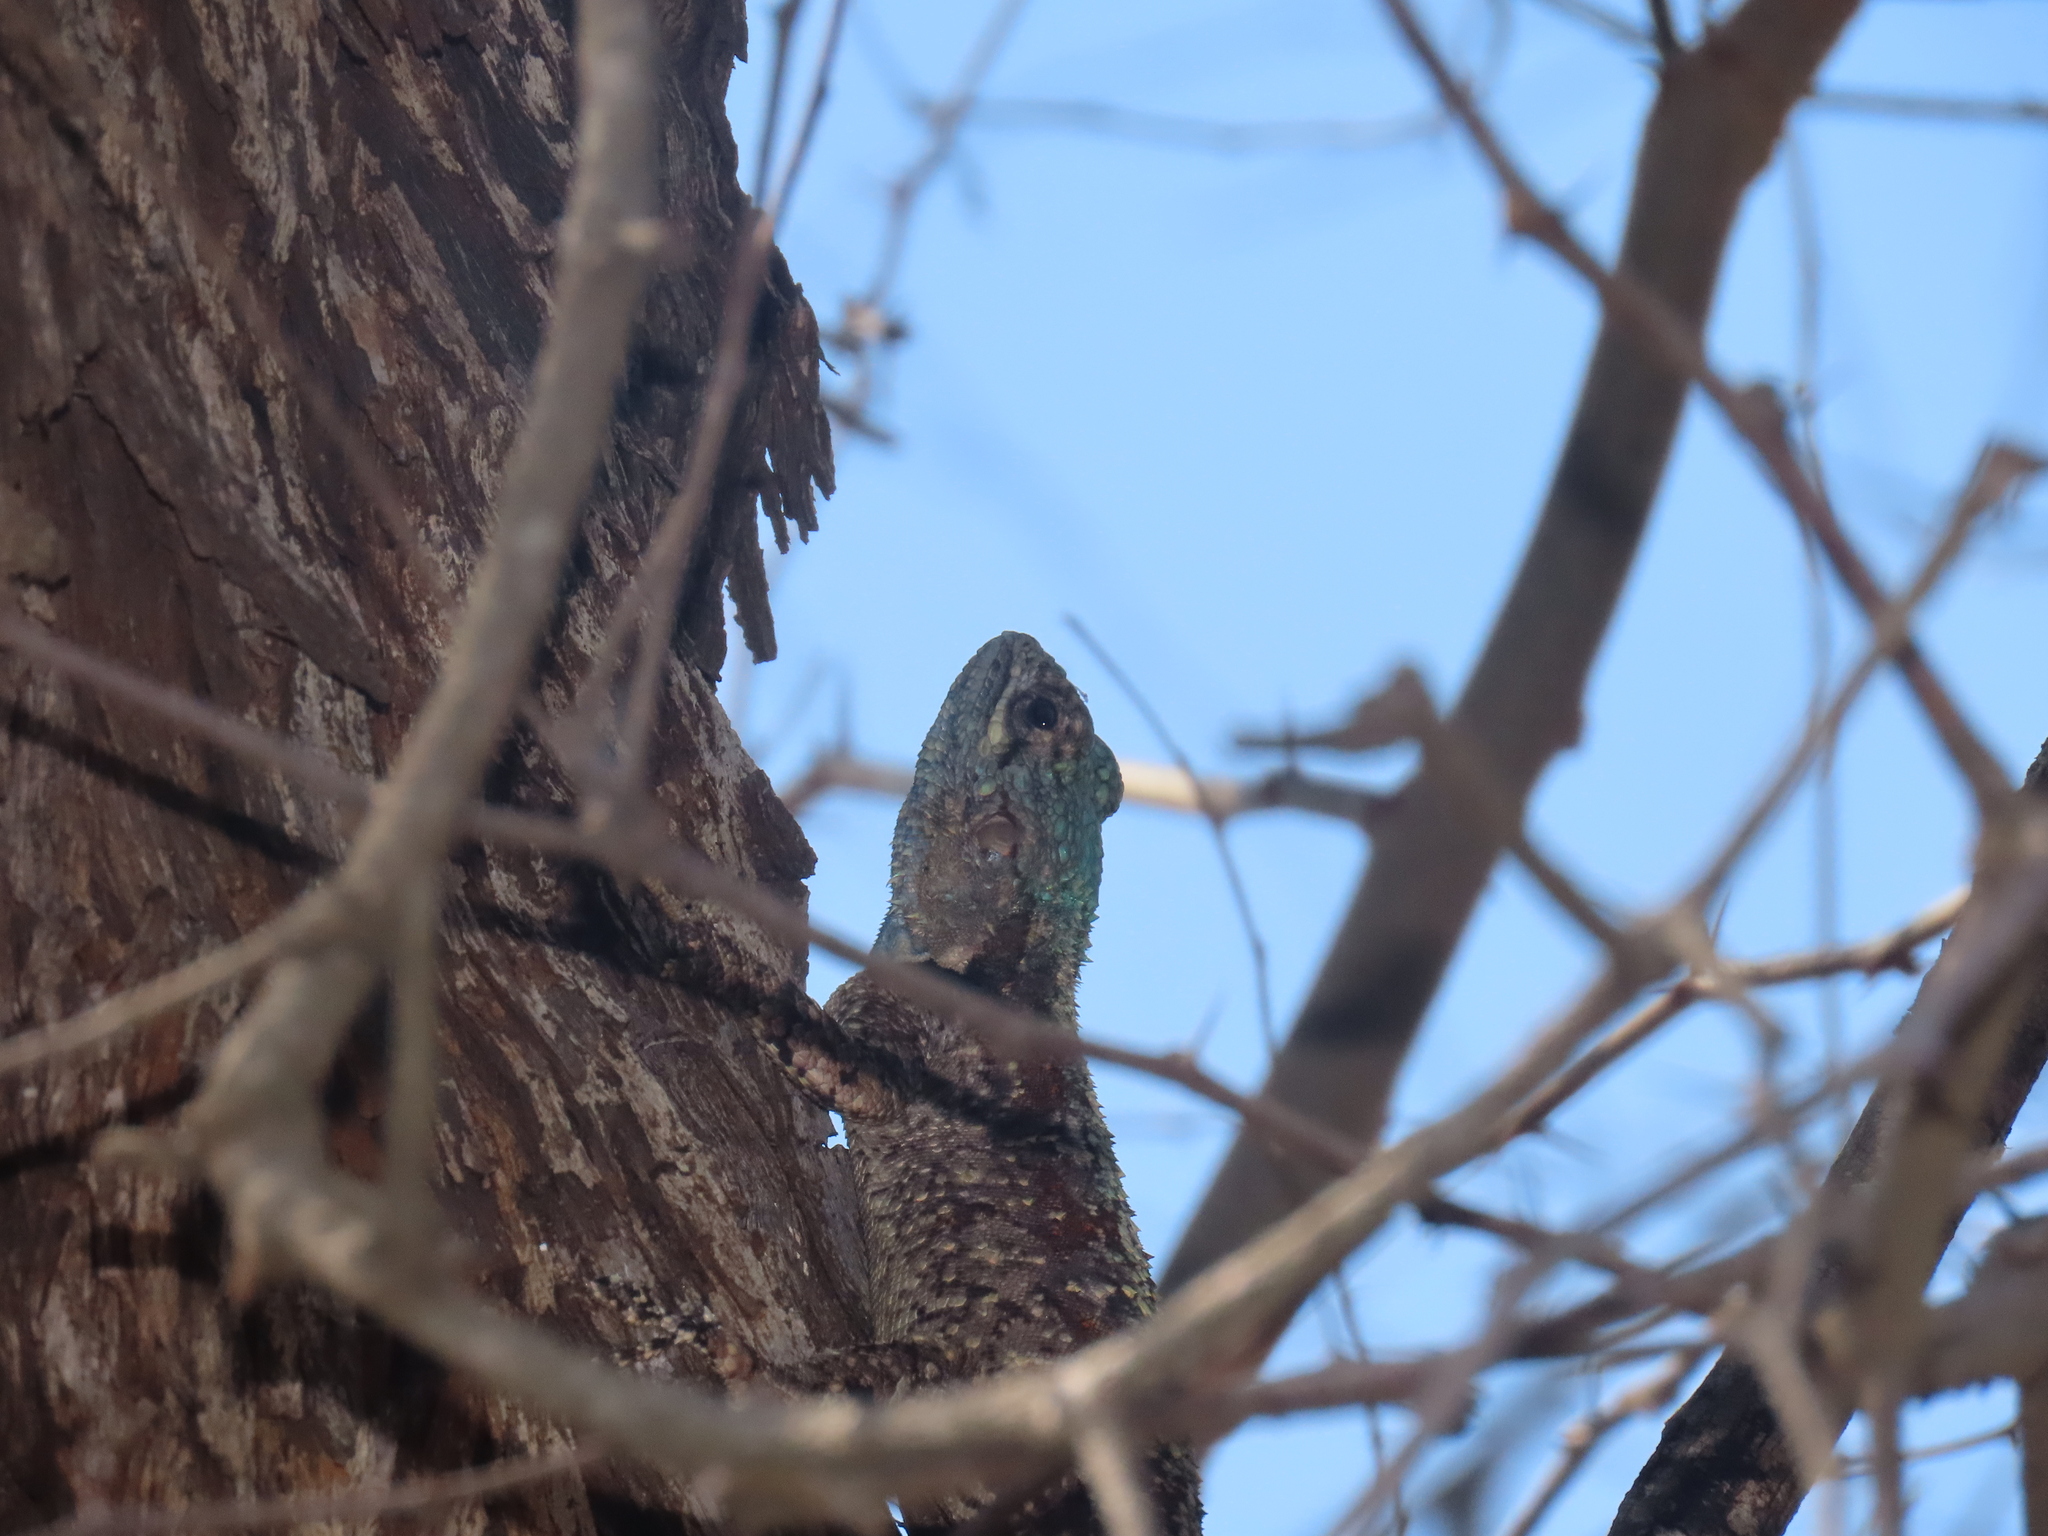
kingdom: Animalia
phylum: Chordata
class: Squamata
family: Agamidae
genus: Acanthocercus
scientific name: Acanthocercus atricollis
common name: Southern tree agama
